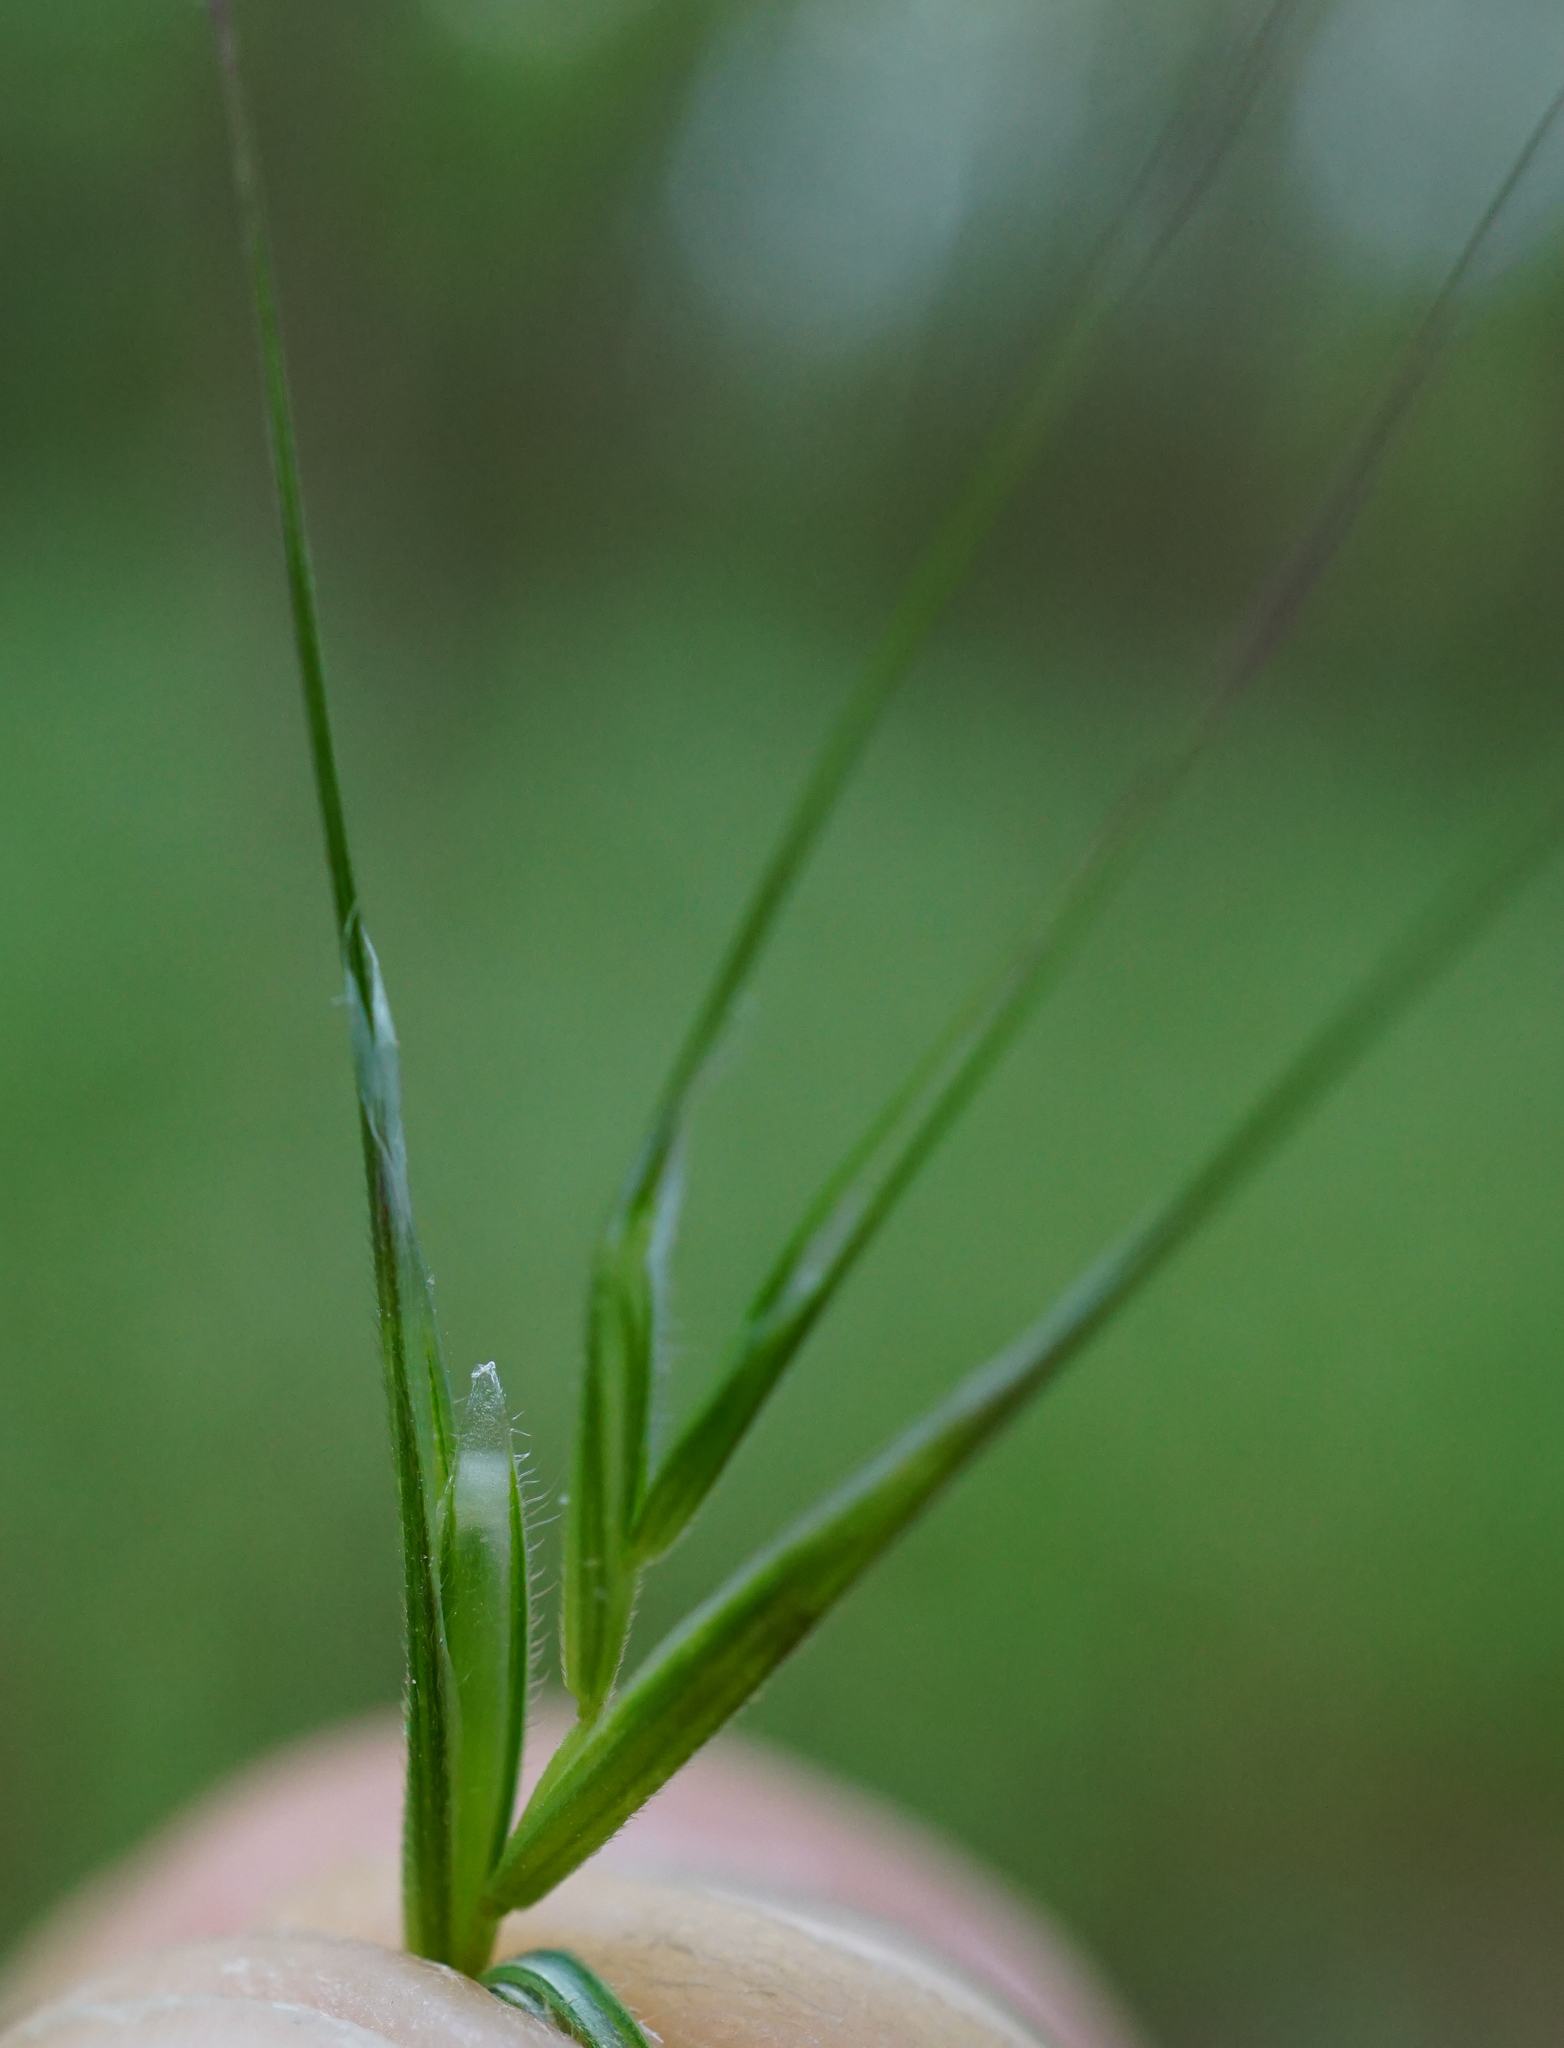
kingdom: Plantae
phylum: Tracheophyta
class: Liliopsida
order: Poales
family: Poaceae
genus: Bromus
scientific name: Bromus sterilis
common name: Poverty brome
